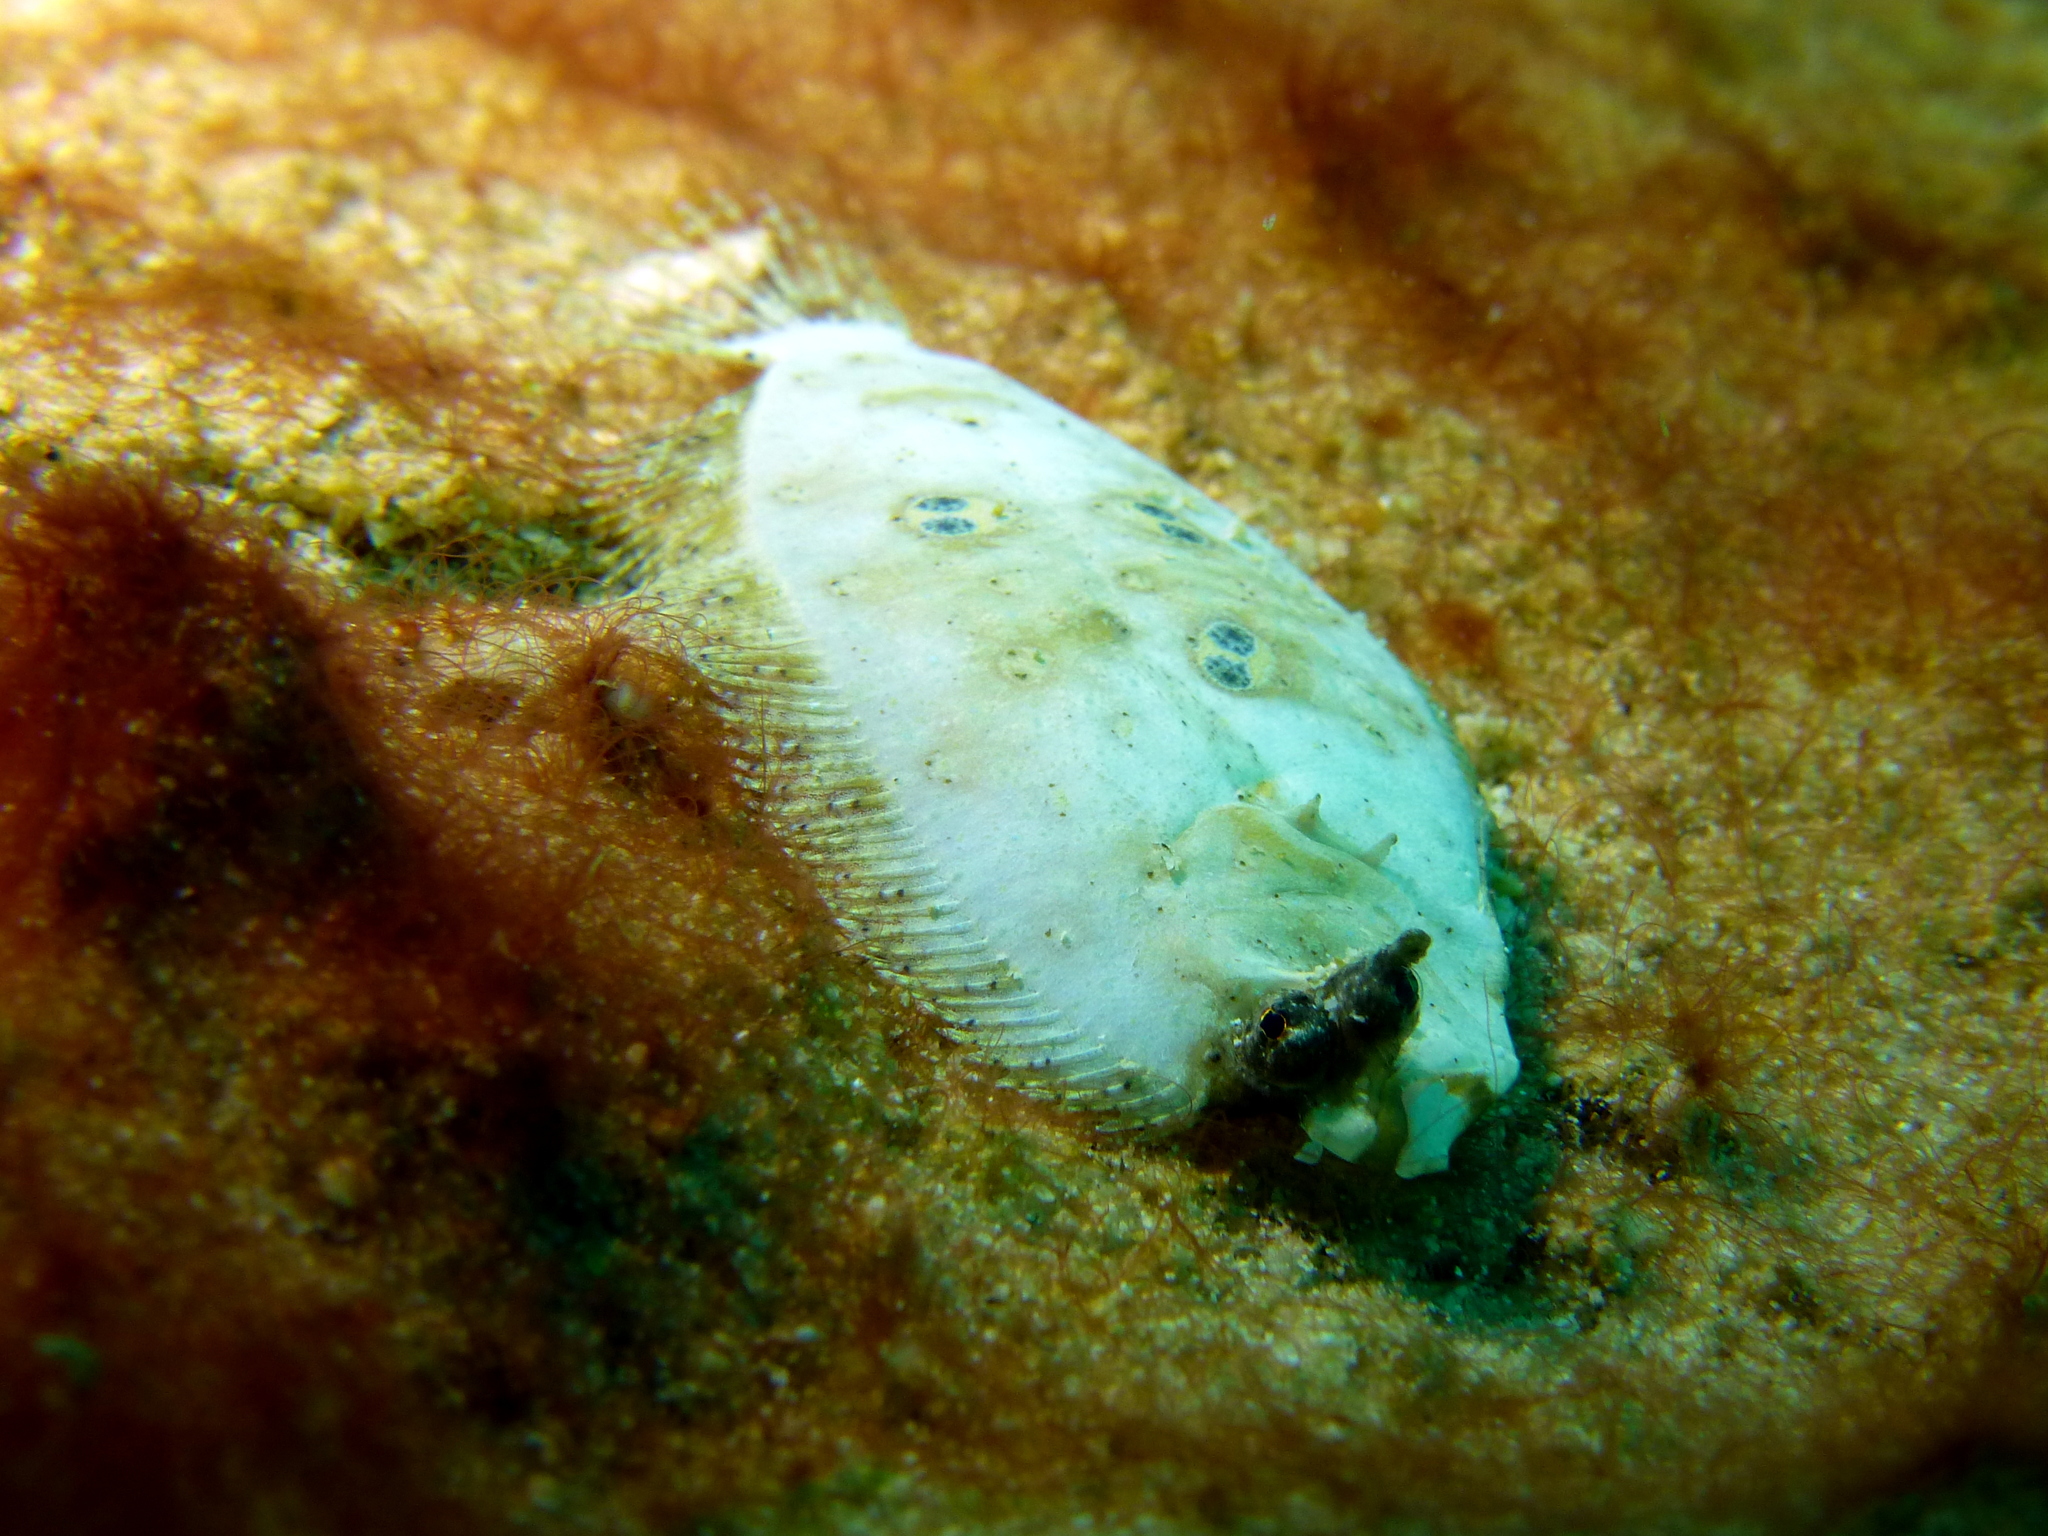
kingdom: Animalia
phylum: Chordata
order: Pleuronectiformes
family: Paralichthyidae
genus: Pseudorhombus
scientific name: Pseudorhombus dupliciocellatus
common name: Ocellated flounder
